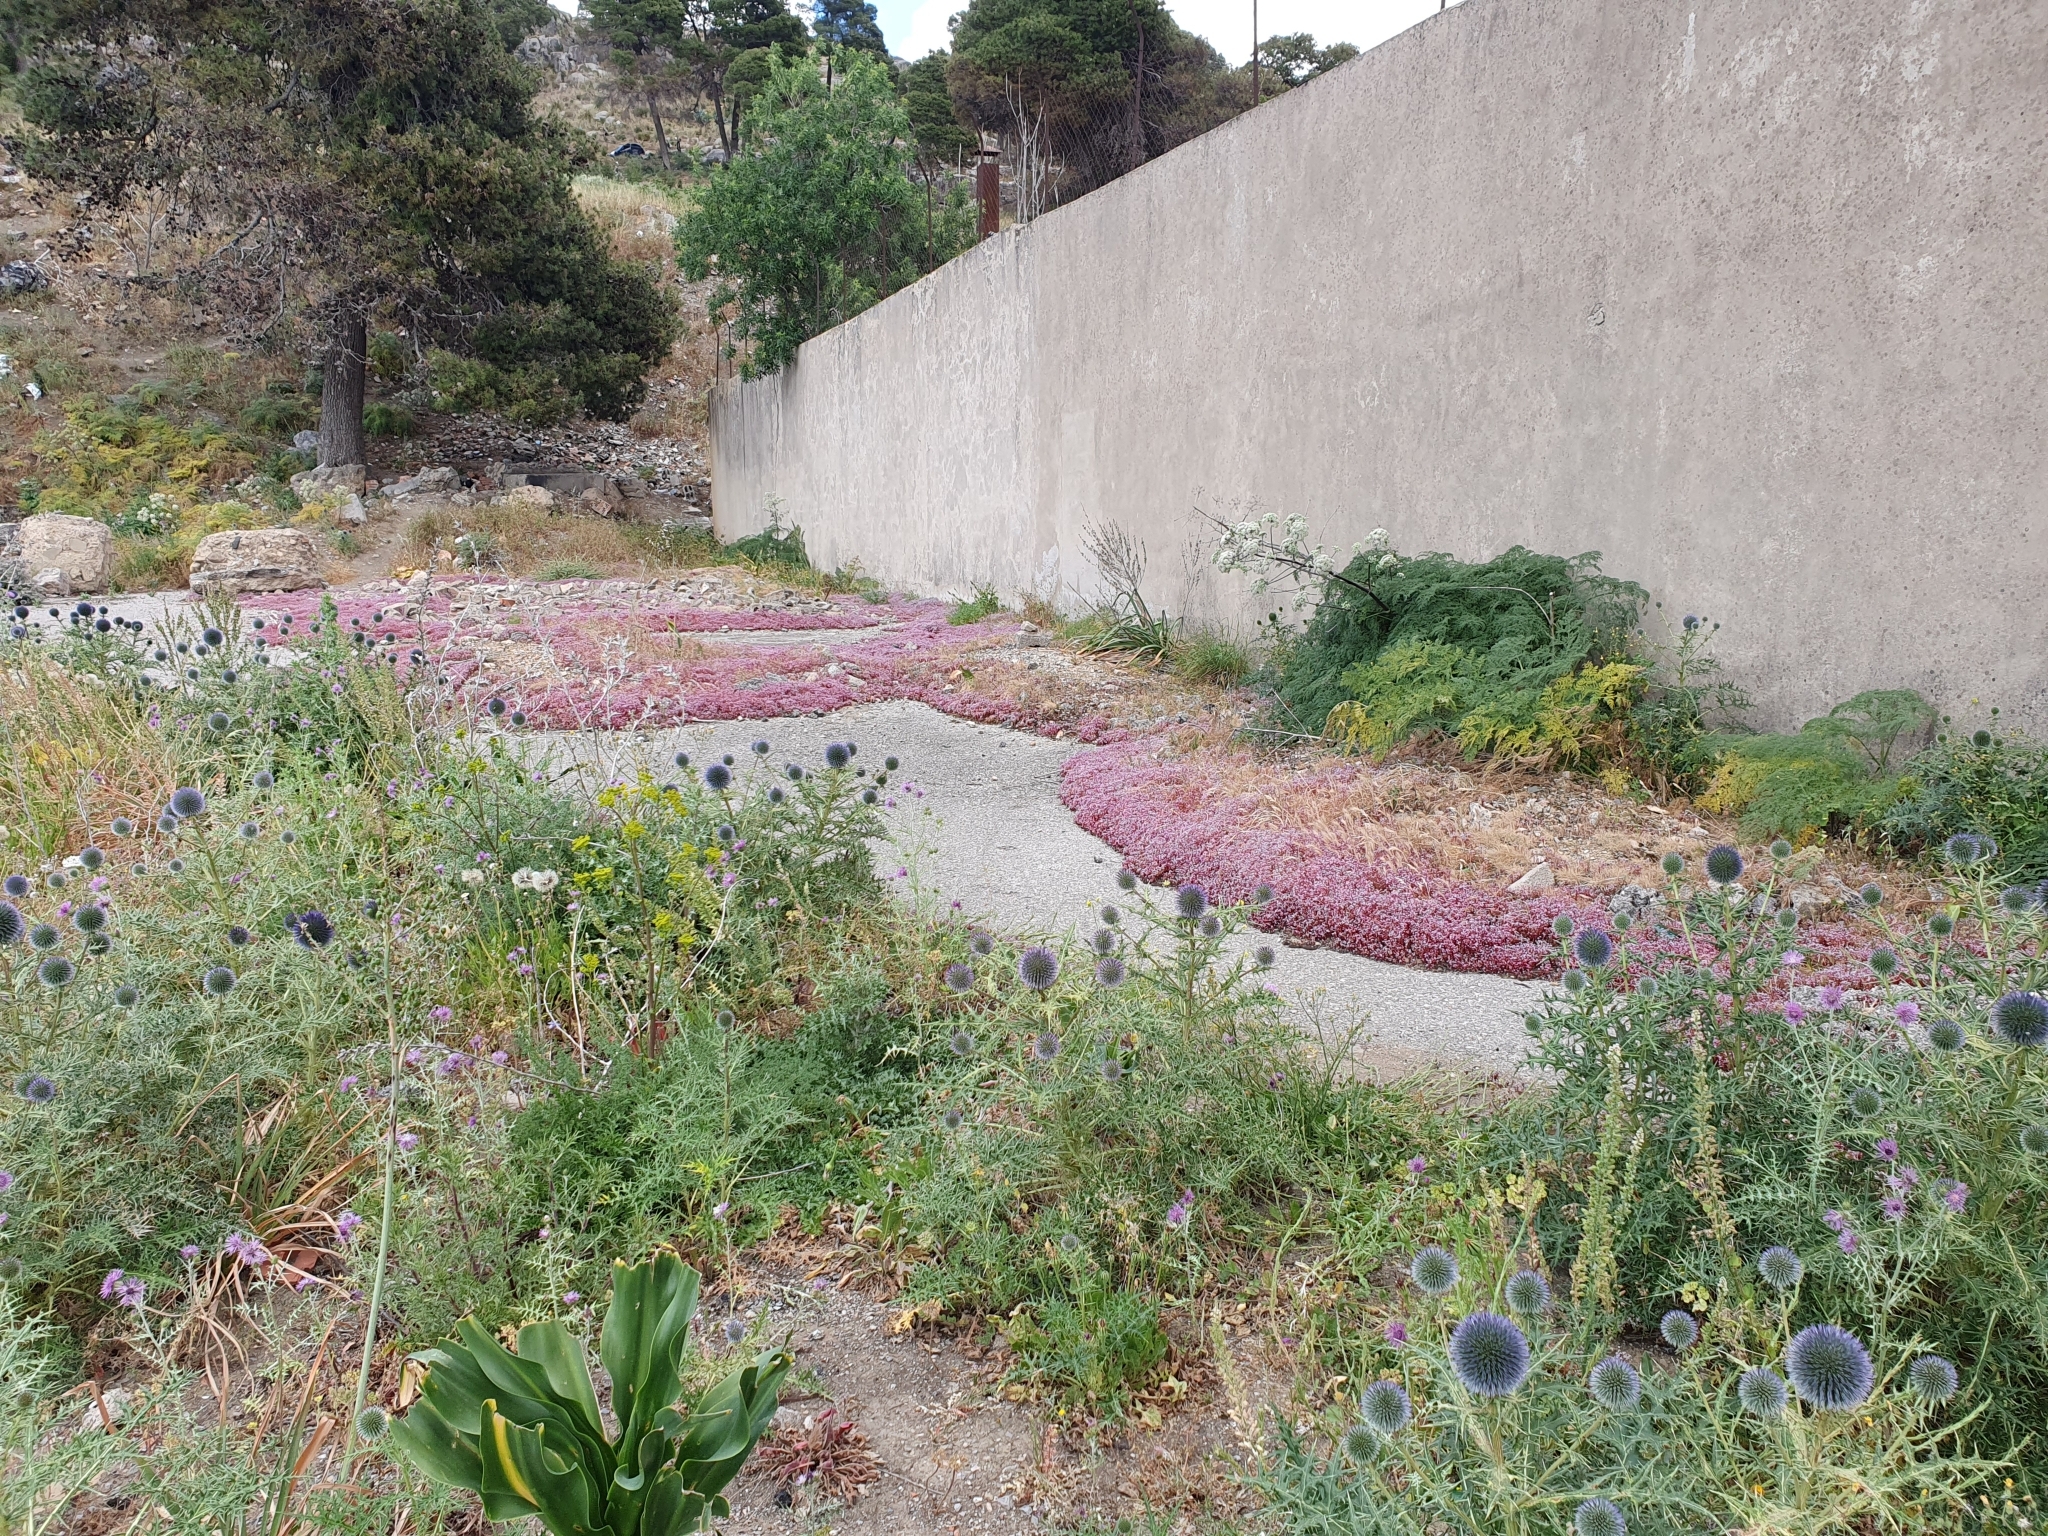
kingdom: Plantae
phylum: Tracheophyta
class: Magnoliopsida
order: Saxifragales
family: Crassulaceae
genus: Sedum
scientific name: Sedum caeruleum
